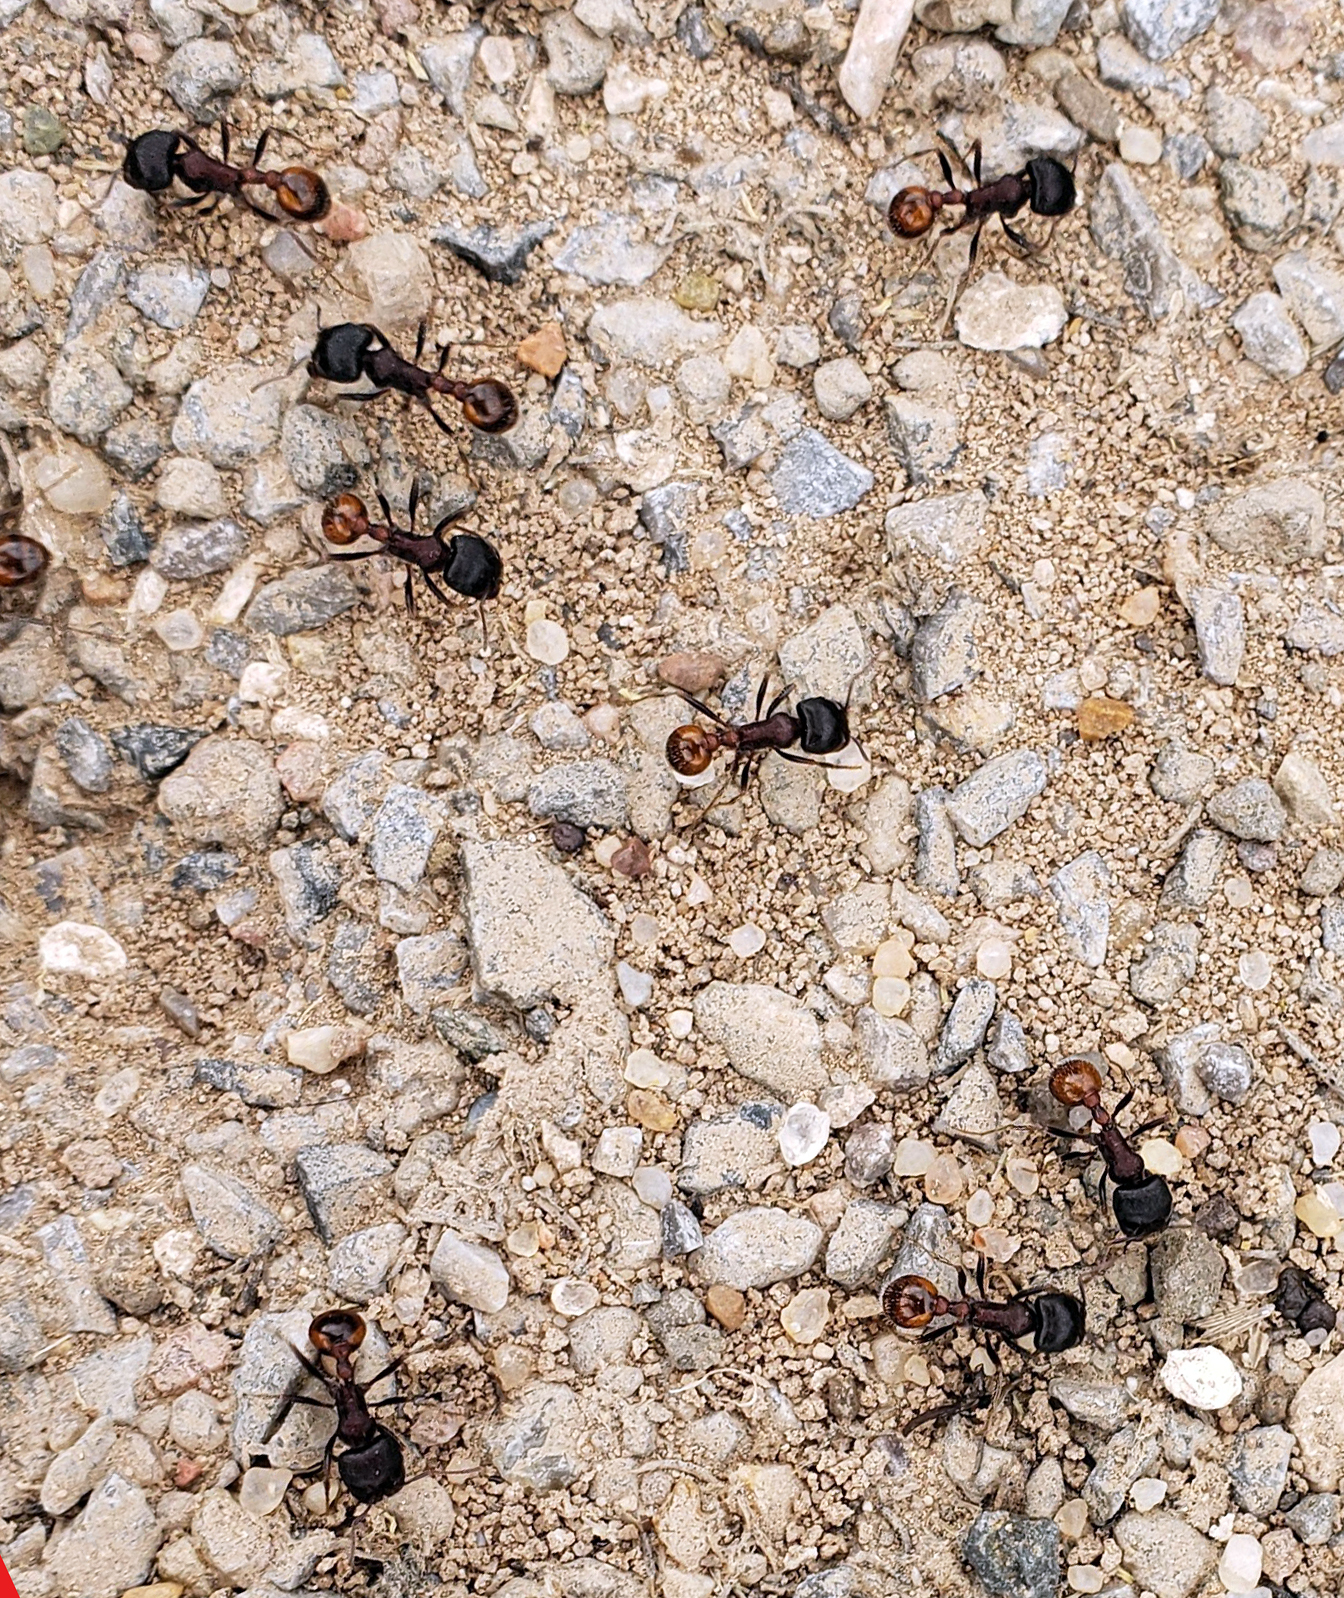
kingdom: Animalia
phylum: Arthropoda
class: Insecta
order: Hymenoptera
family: Formicidae
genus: Pogonomyrmex
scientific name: Pogonomyrmex rugosus
